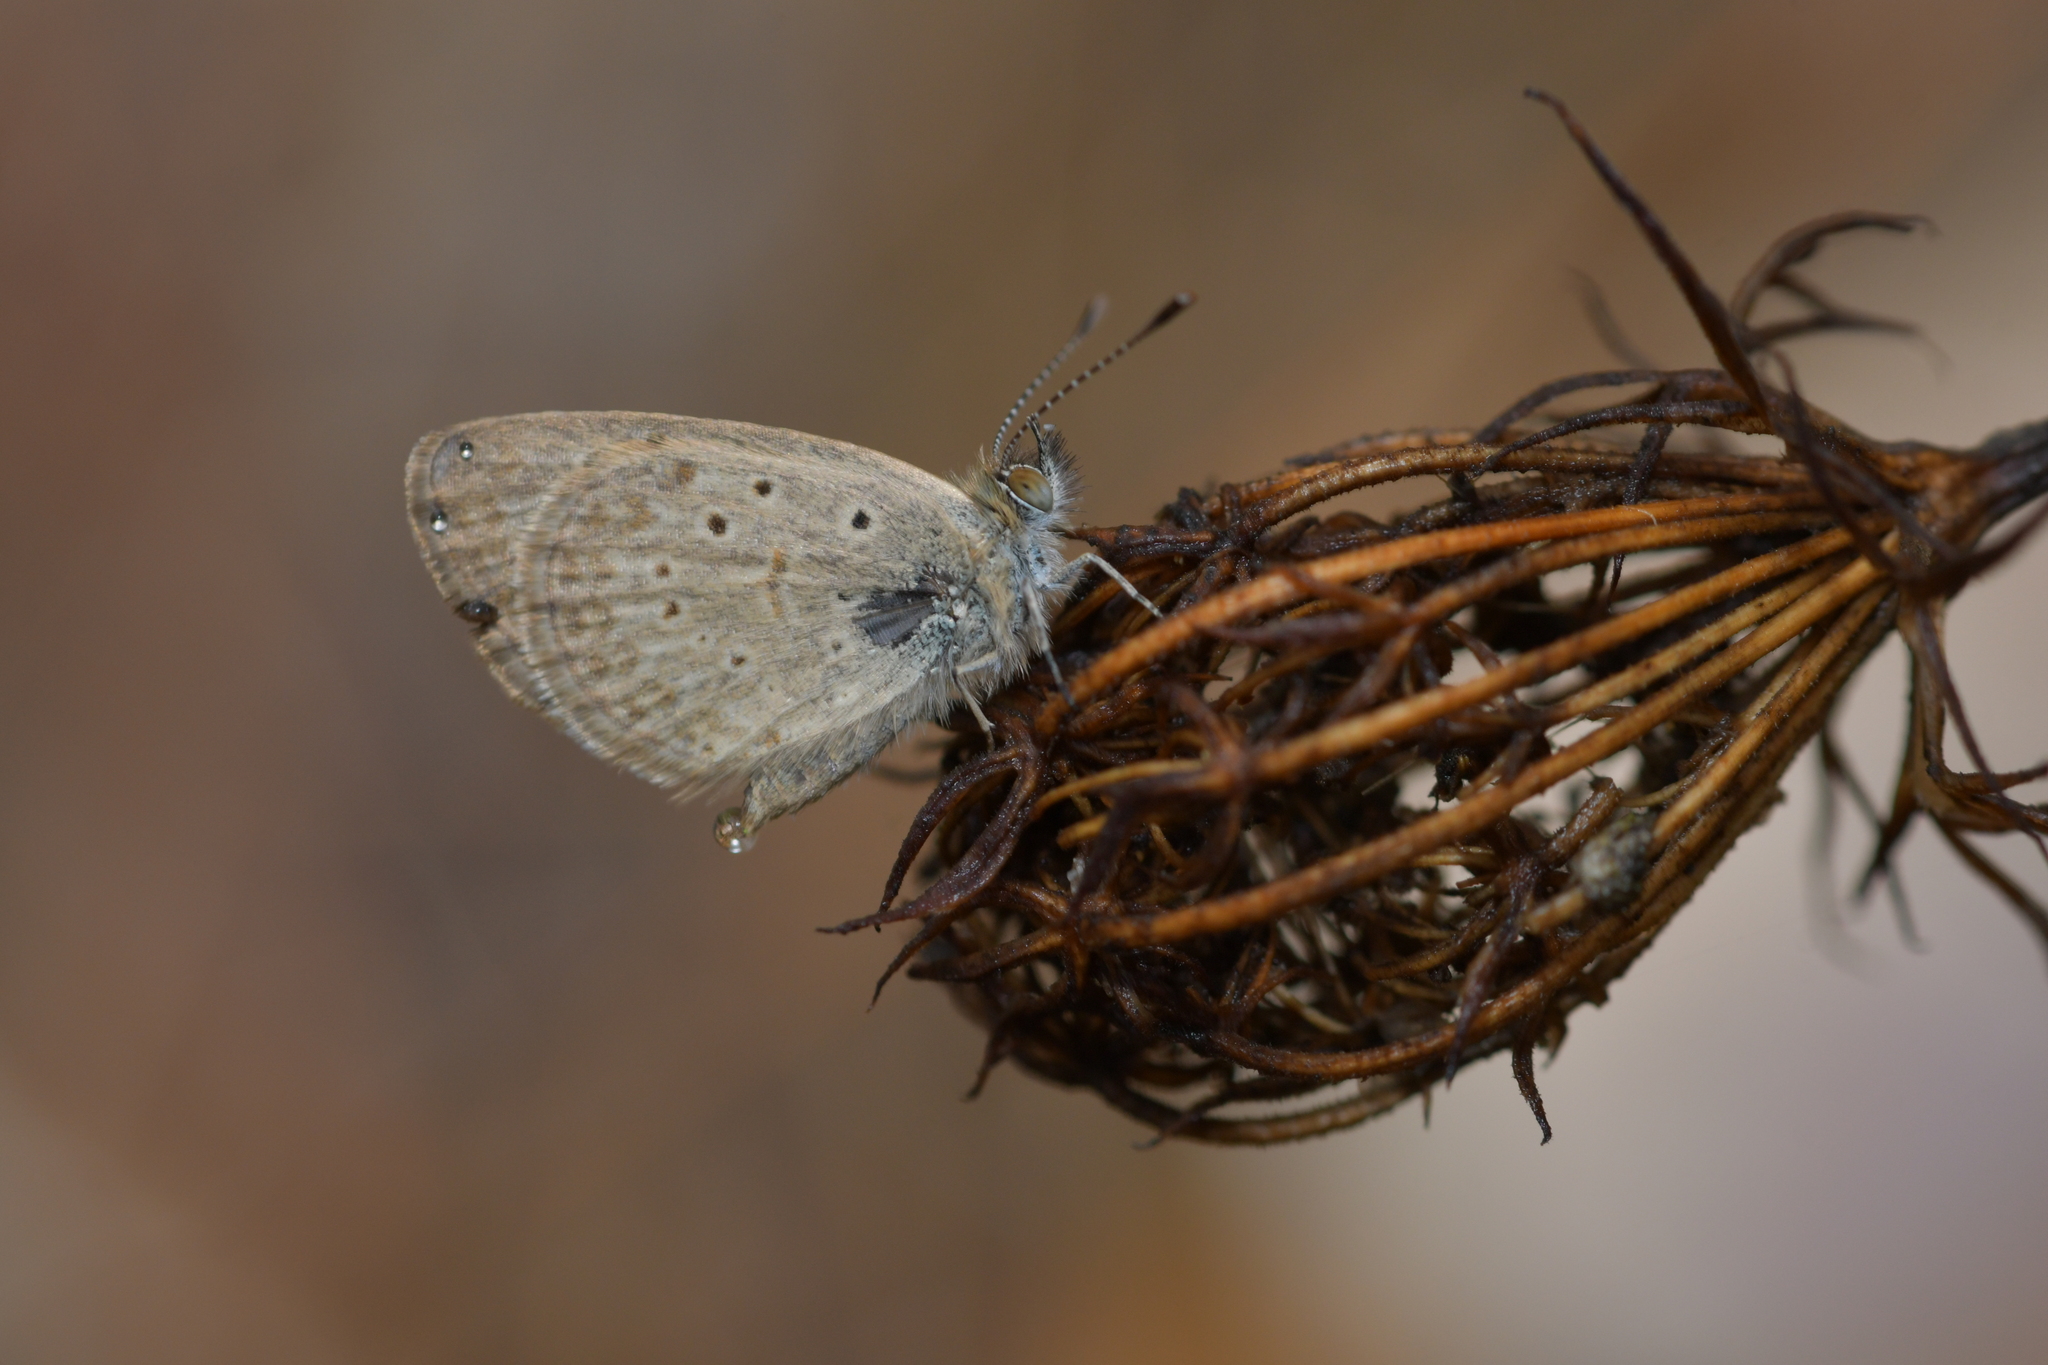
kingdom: Animalia
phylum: Arthropoda
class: Insecta
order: Lepidoptera
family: Lycaenidae
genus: Zizeeria
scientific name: Zizeeria knysna
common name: African grass blue
